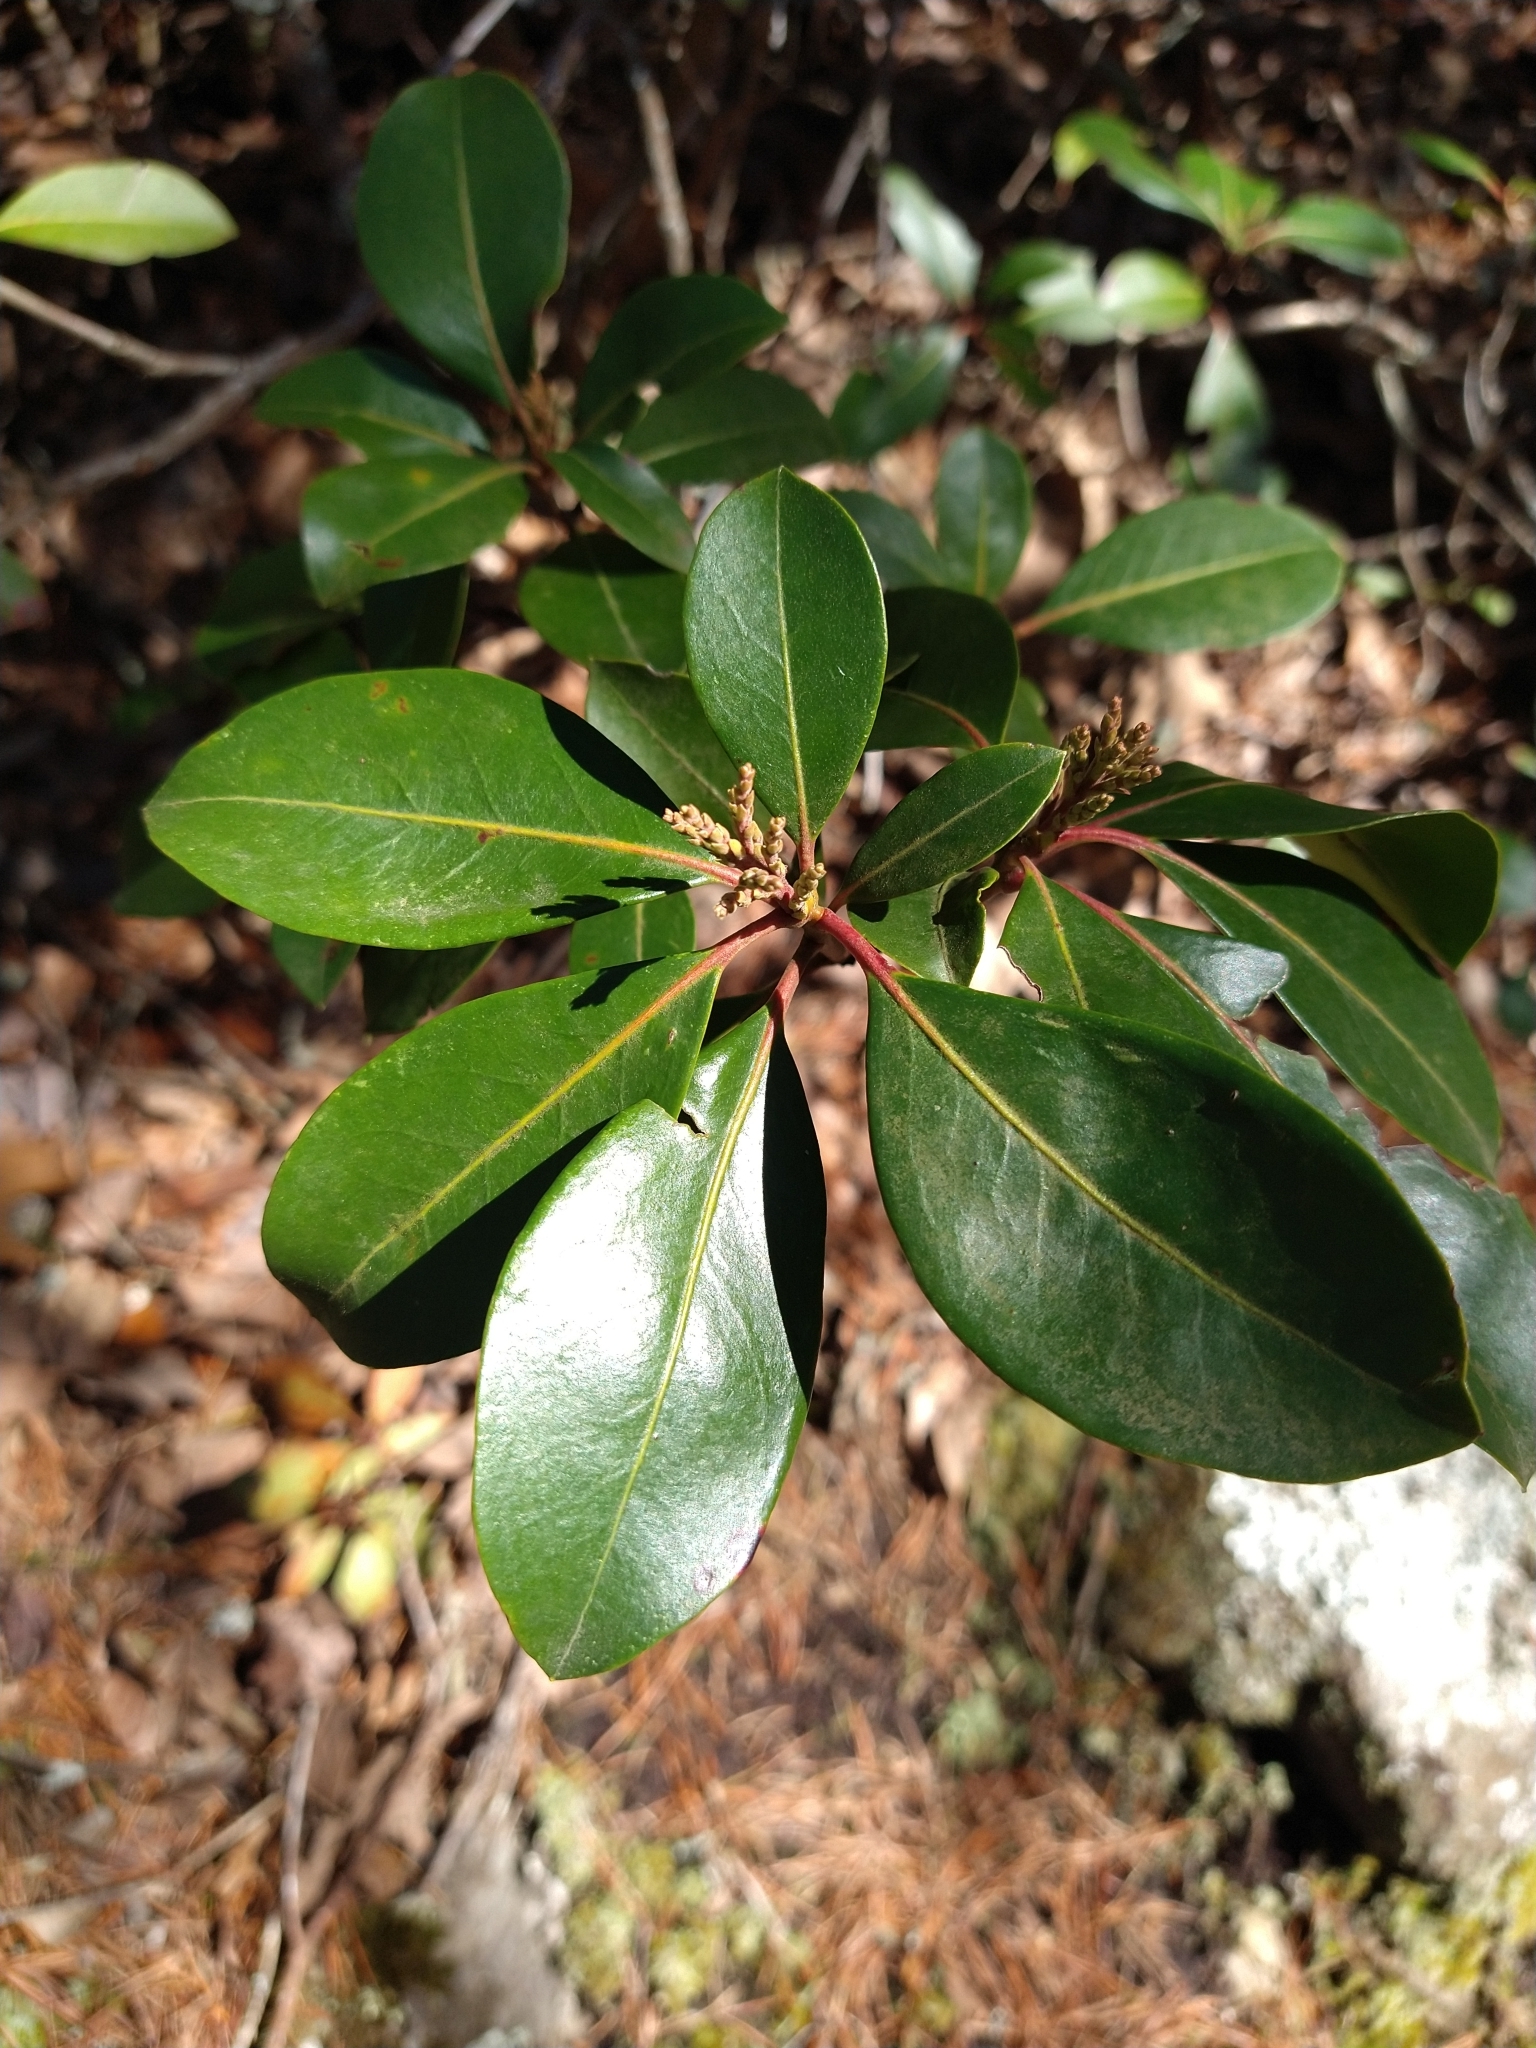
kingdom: Plantae
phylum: Tracheophyta
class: Magnoliopsida
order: Ericales
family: Ericaceae
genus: Kalmia
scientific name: Kalmia latifolia
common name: Mountain-laurel
